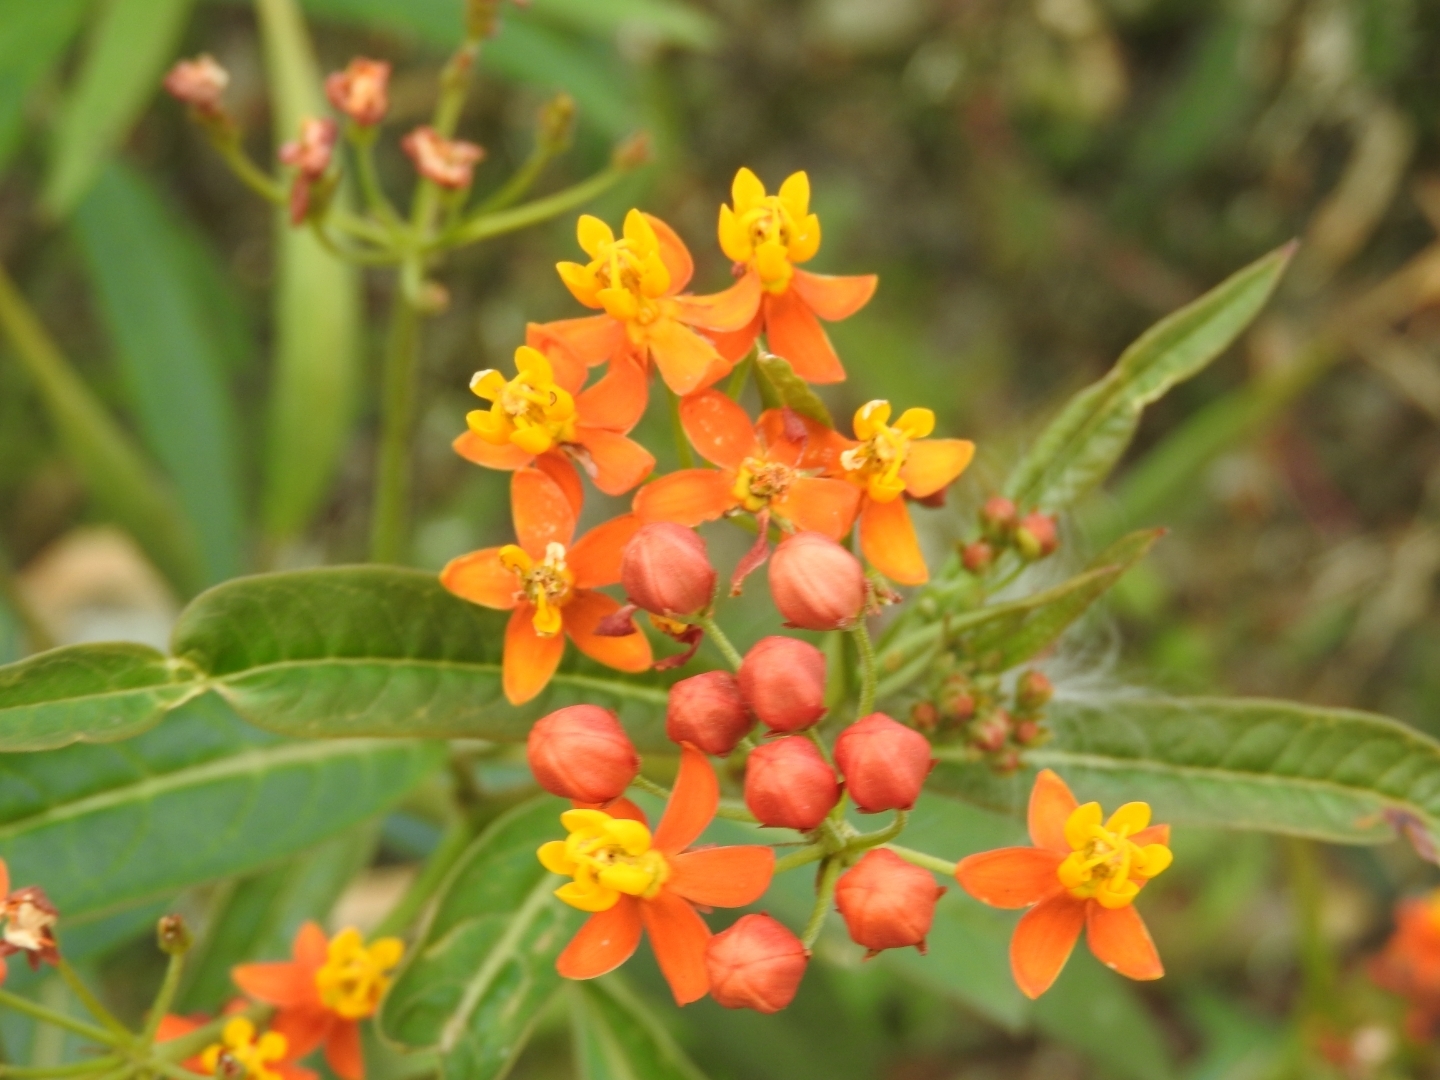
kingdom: Plantae
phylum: Tracheophyta
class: Magnoliopsida
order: Gentianales
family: Apocynaceae
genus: Asclepias
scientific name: Asclepias curassavica
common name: Bloodflower
